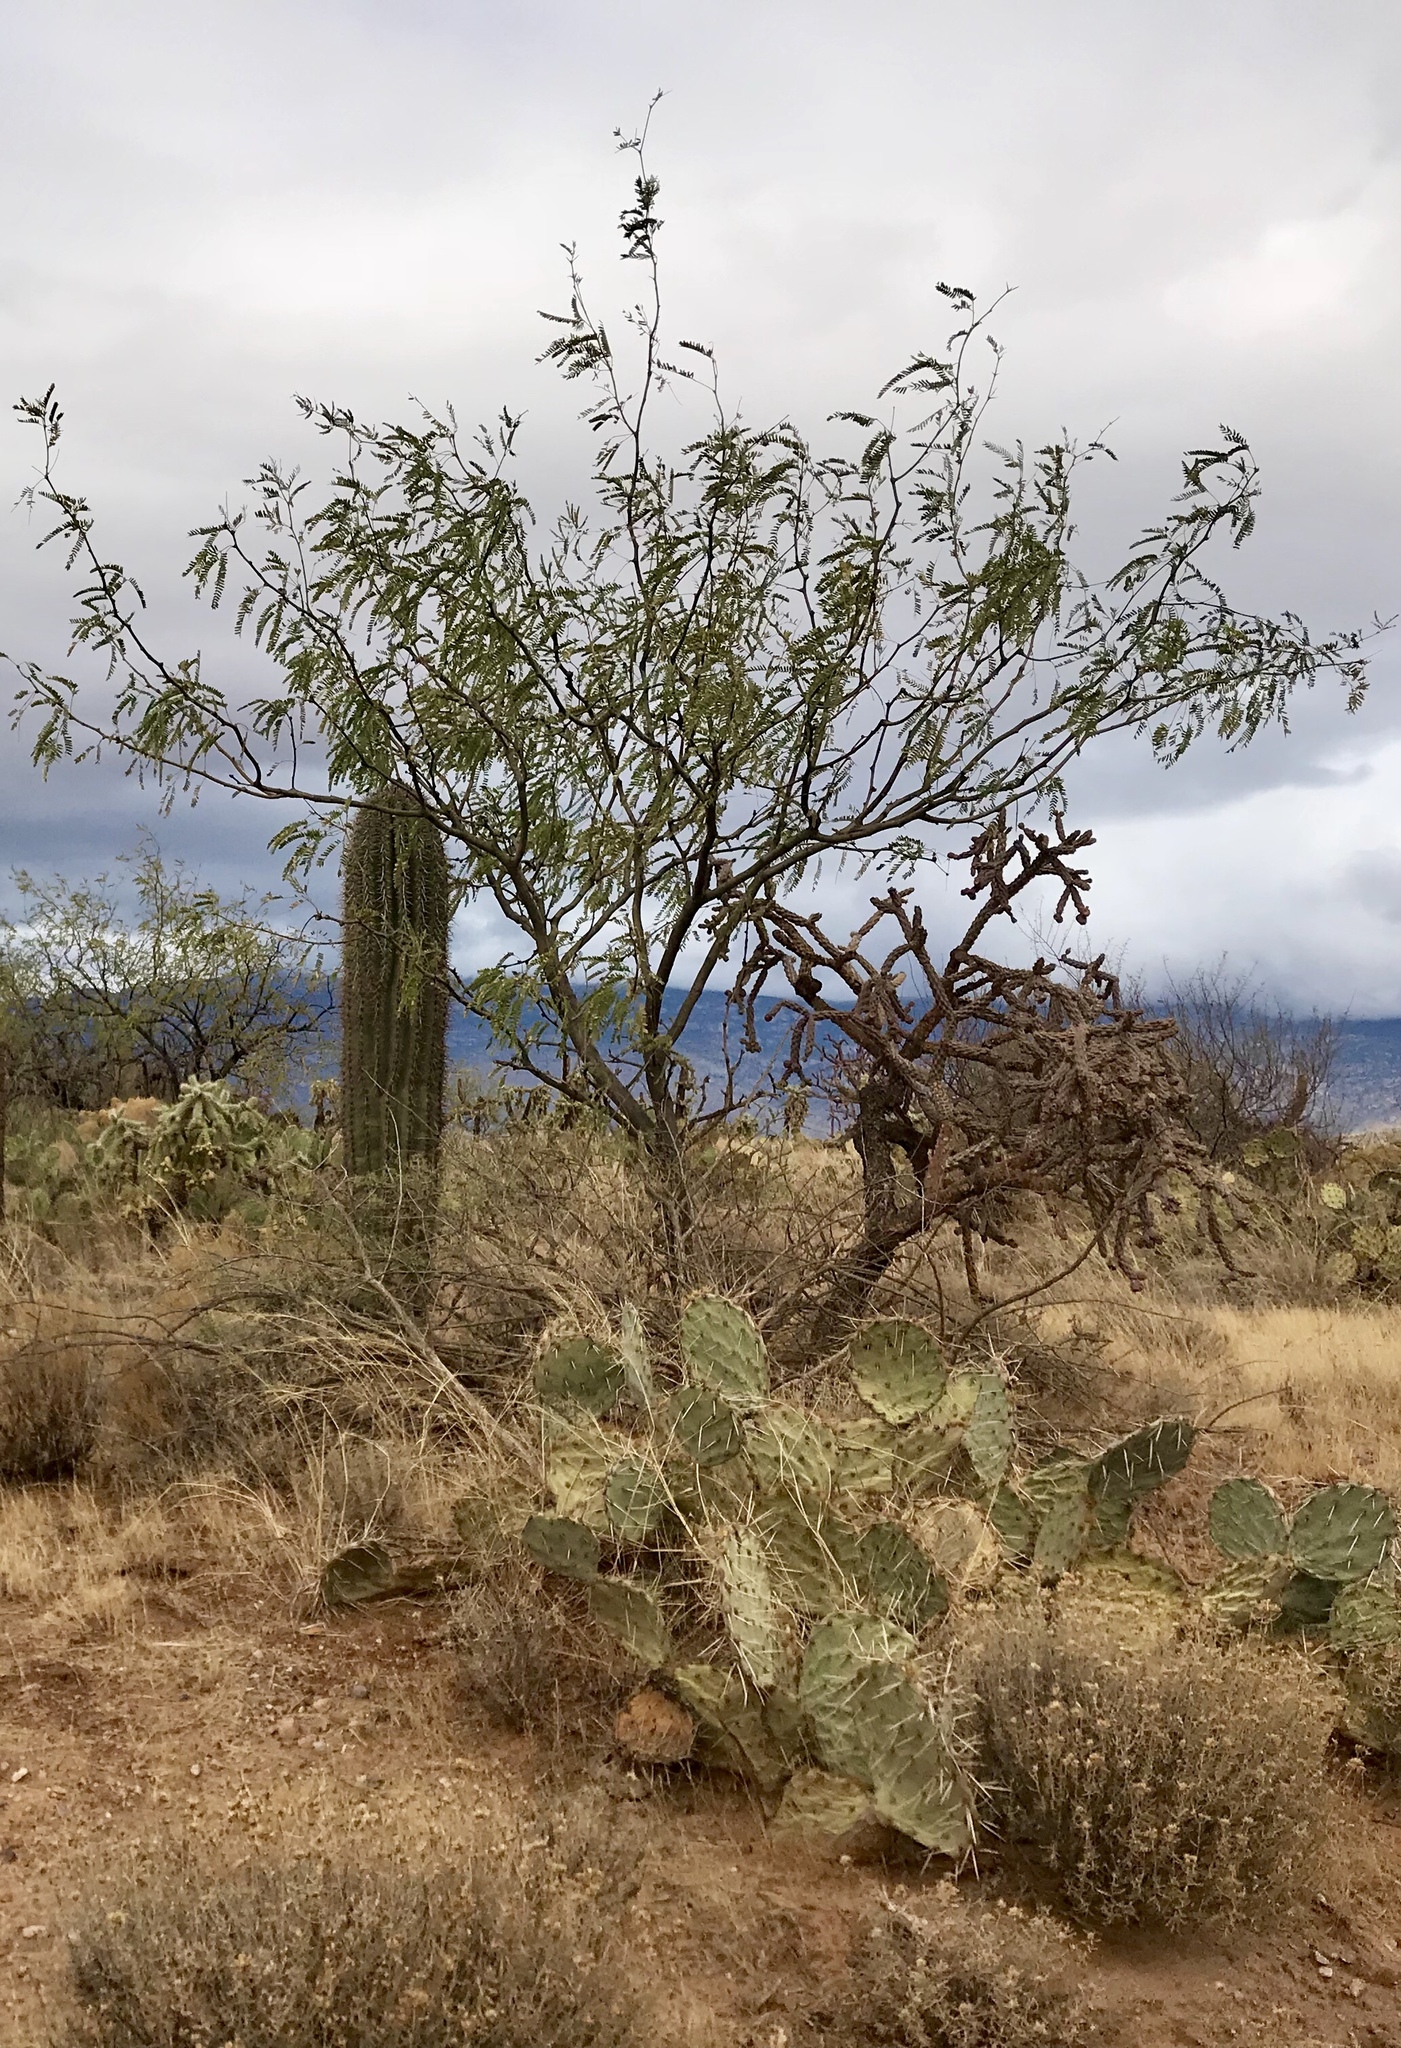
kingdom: Plantae
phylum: Tracheophyta
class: Magnoliopsida
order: Fabales
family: Fabaceae
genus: Prosopis
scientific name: Prosopis velutina
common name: Velvet mesquite
